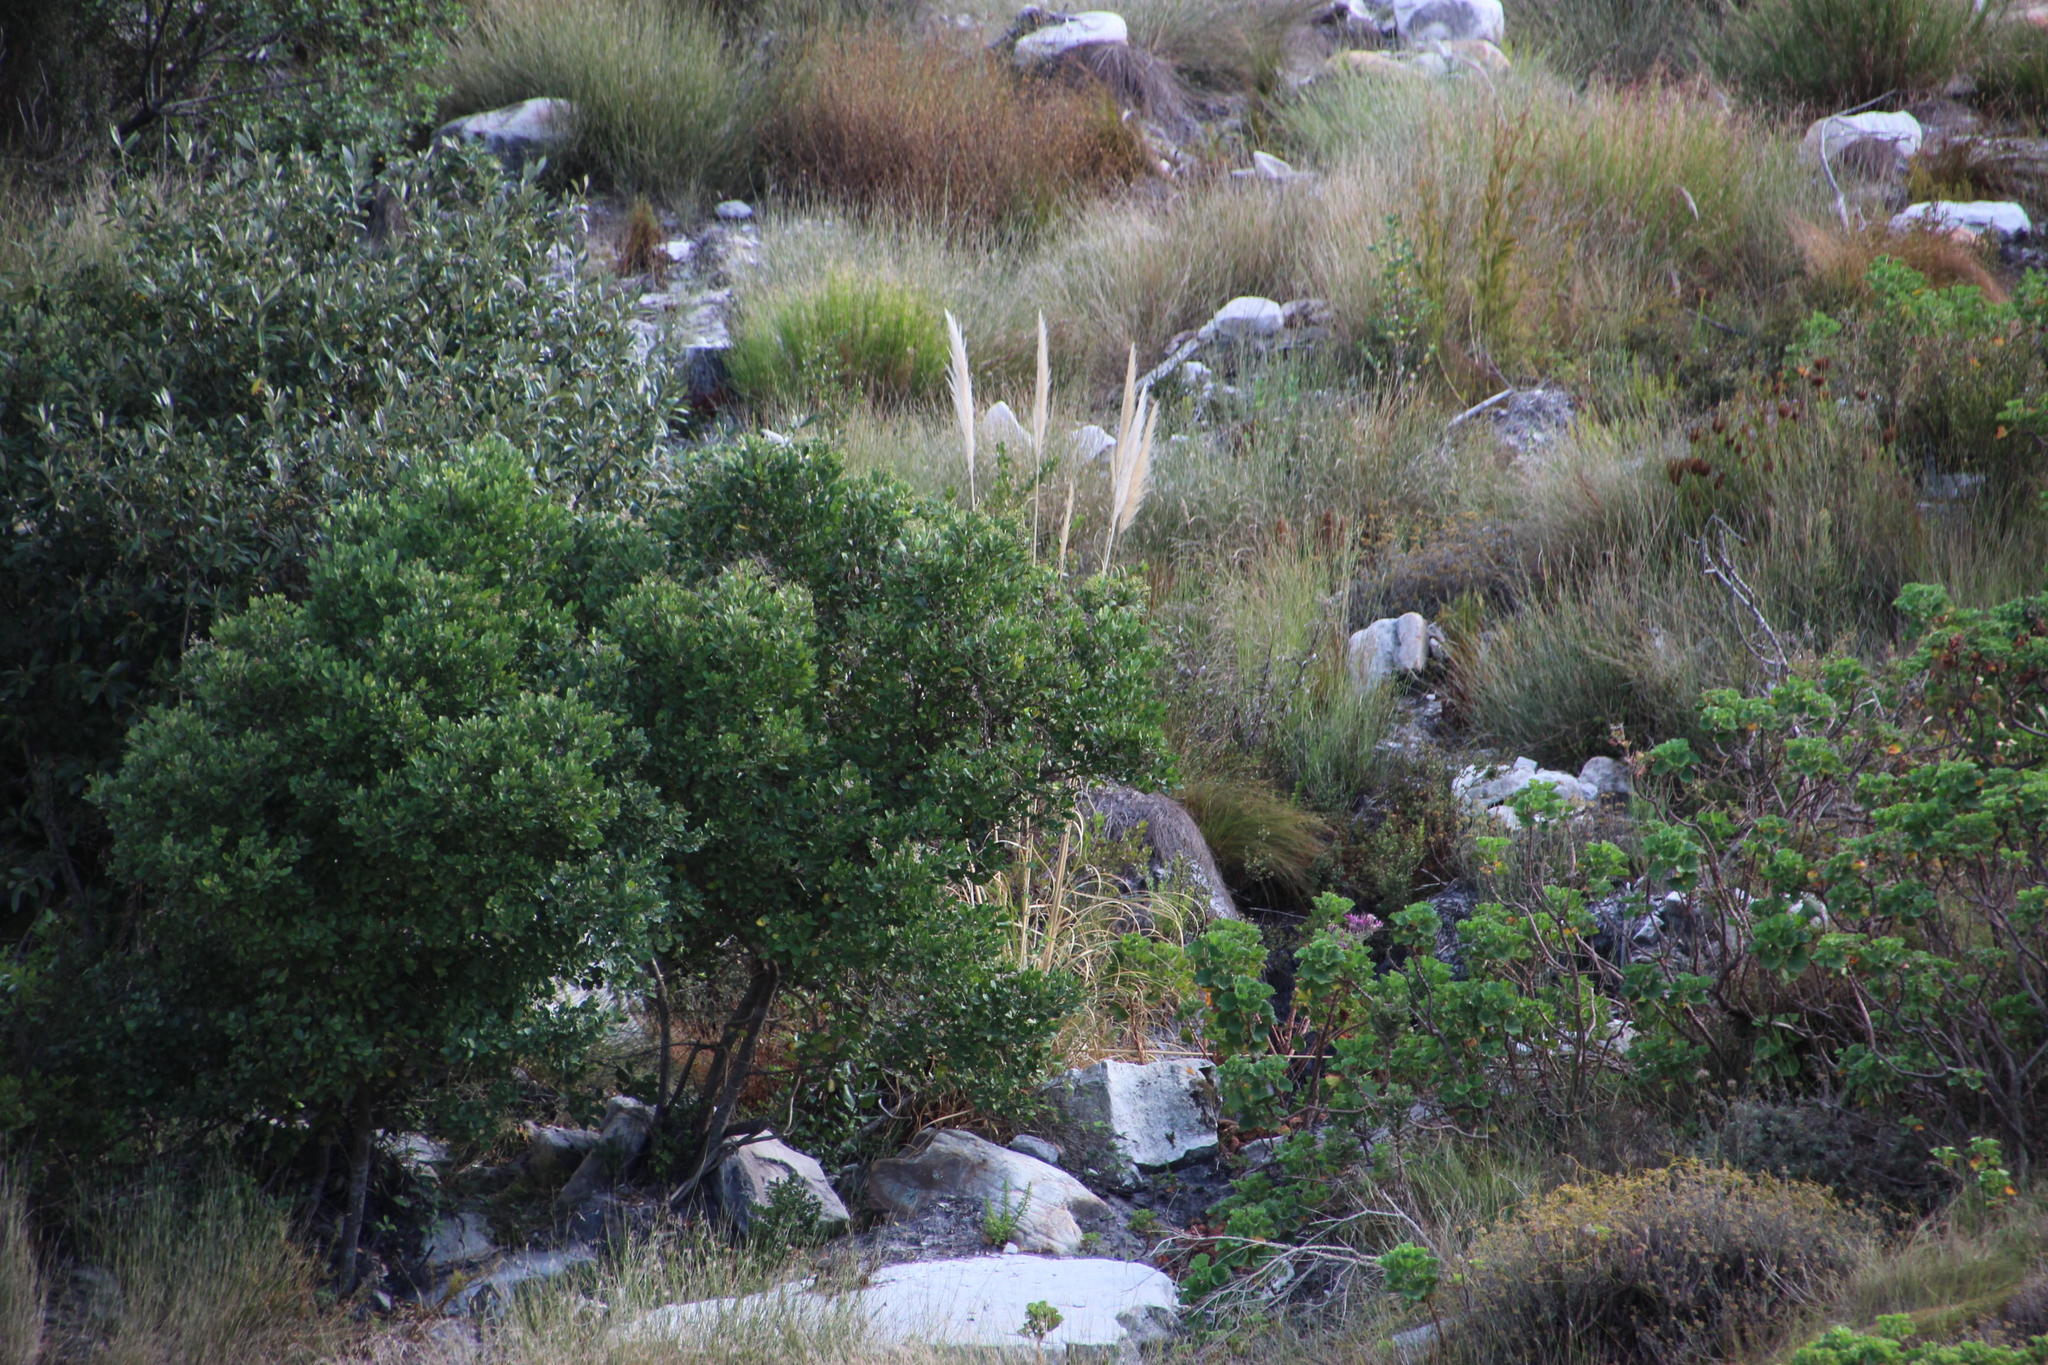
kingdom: Plantae
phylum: Tracheophyta
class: Liliopsida
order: Poales
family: Poaceae
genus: Cortaderia
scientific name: Cortaderia selloana
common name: Uruguayan pampas grass
